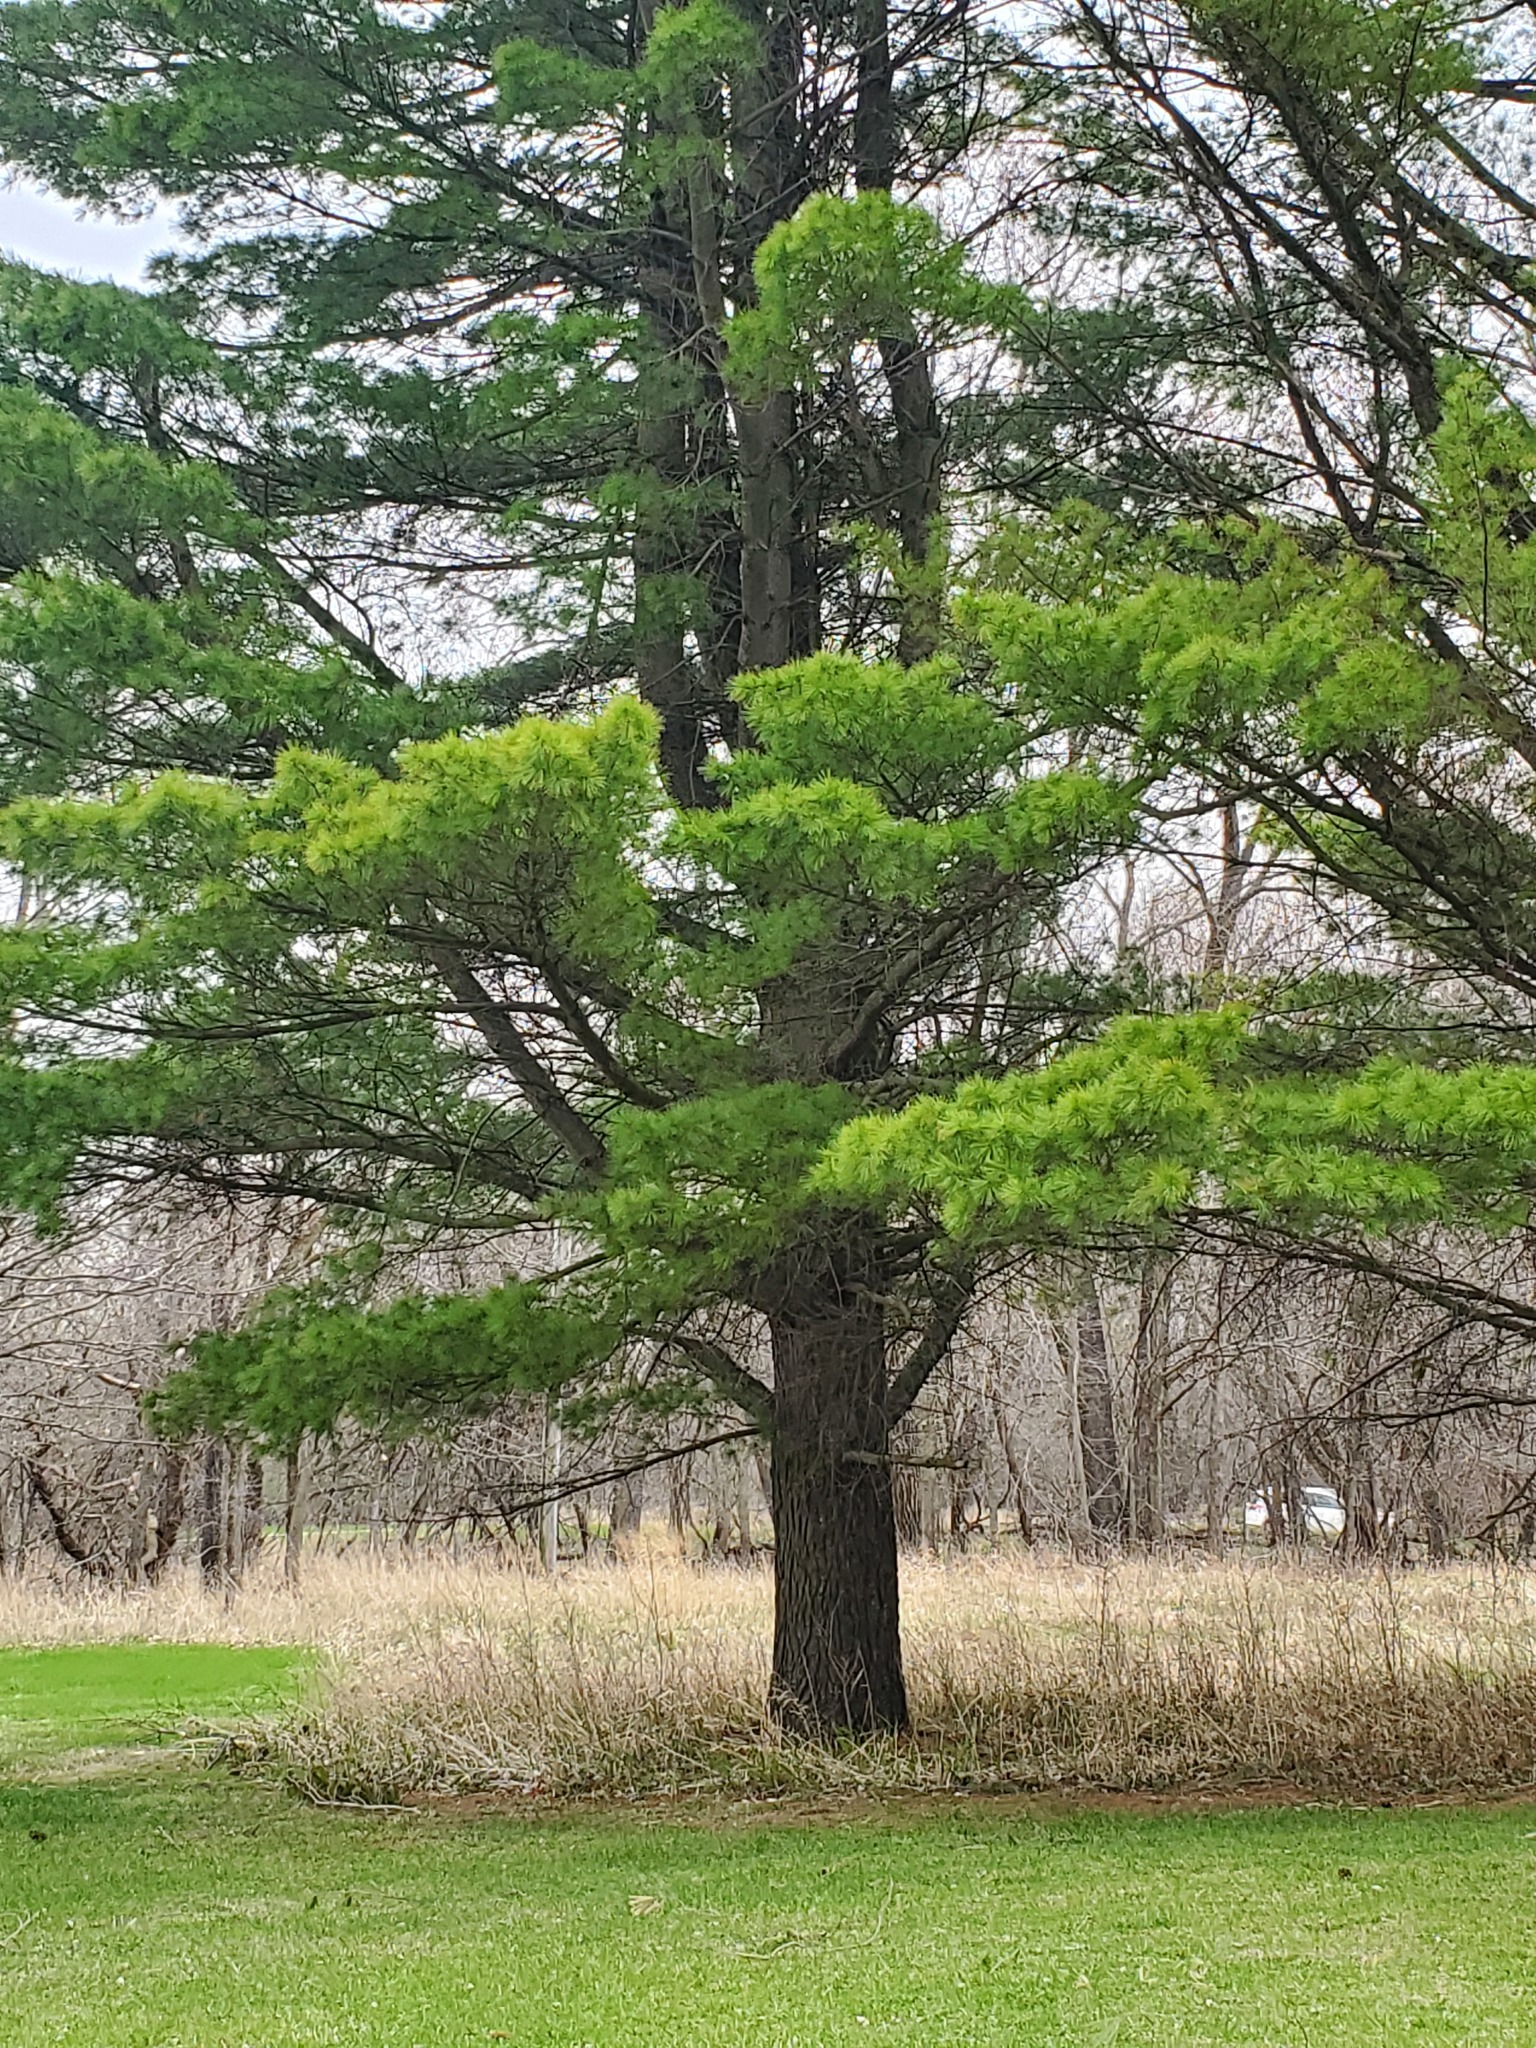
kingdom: Plantae
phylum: Tracheophyta
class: Pinopsida
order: Pinales
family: Pinaceae
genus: Pinus
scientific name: Pinus strobus
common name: Weymouth pine
